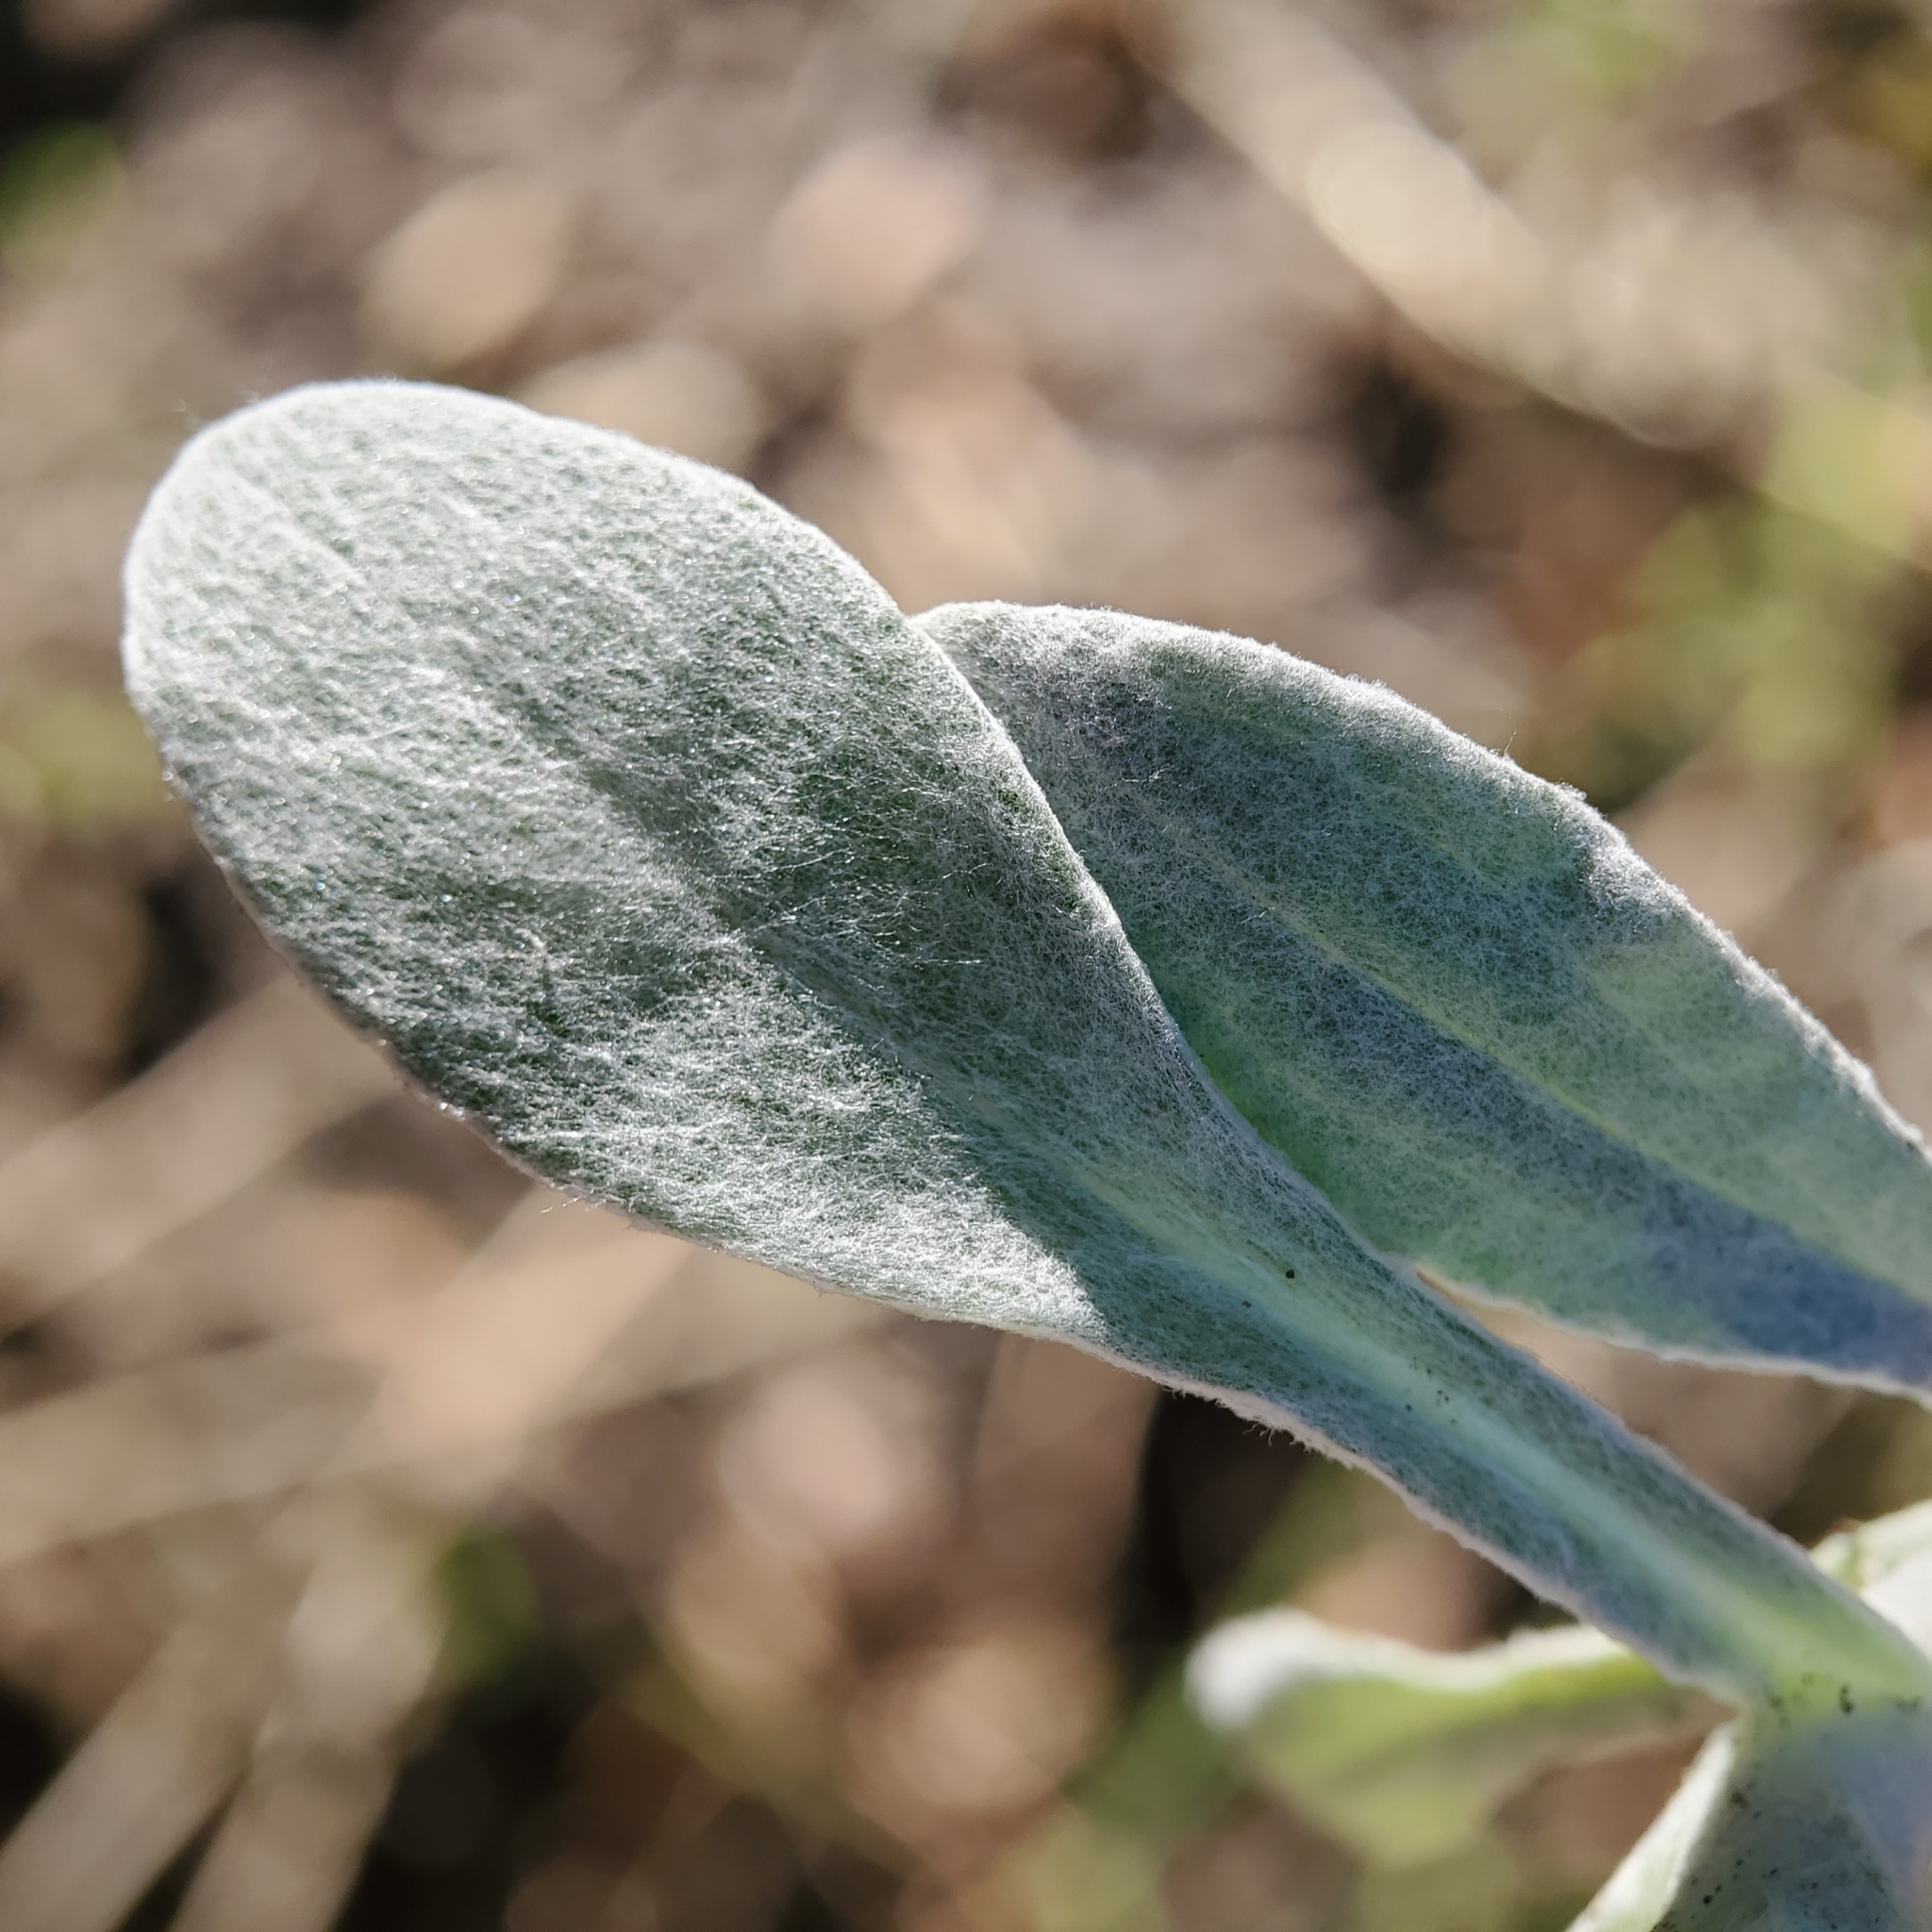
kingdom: Plantae
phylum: Tracheophyta
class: Magnoliopsida
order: Asterales
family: Asteraceae
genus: Pseudognaphalium
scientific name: Pseudognaphalium microcephalum
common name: San diego rabbit-tobacco
